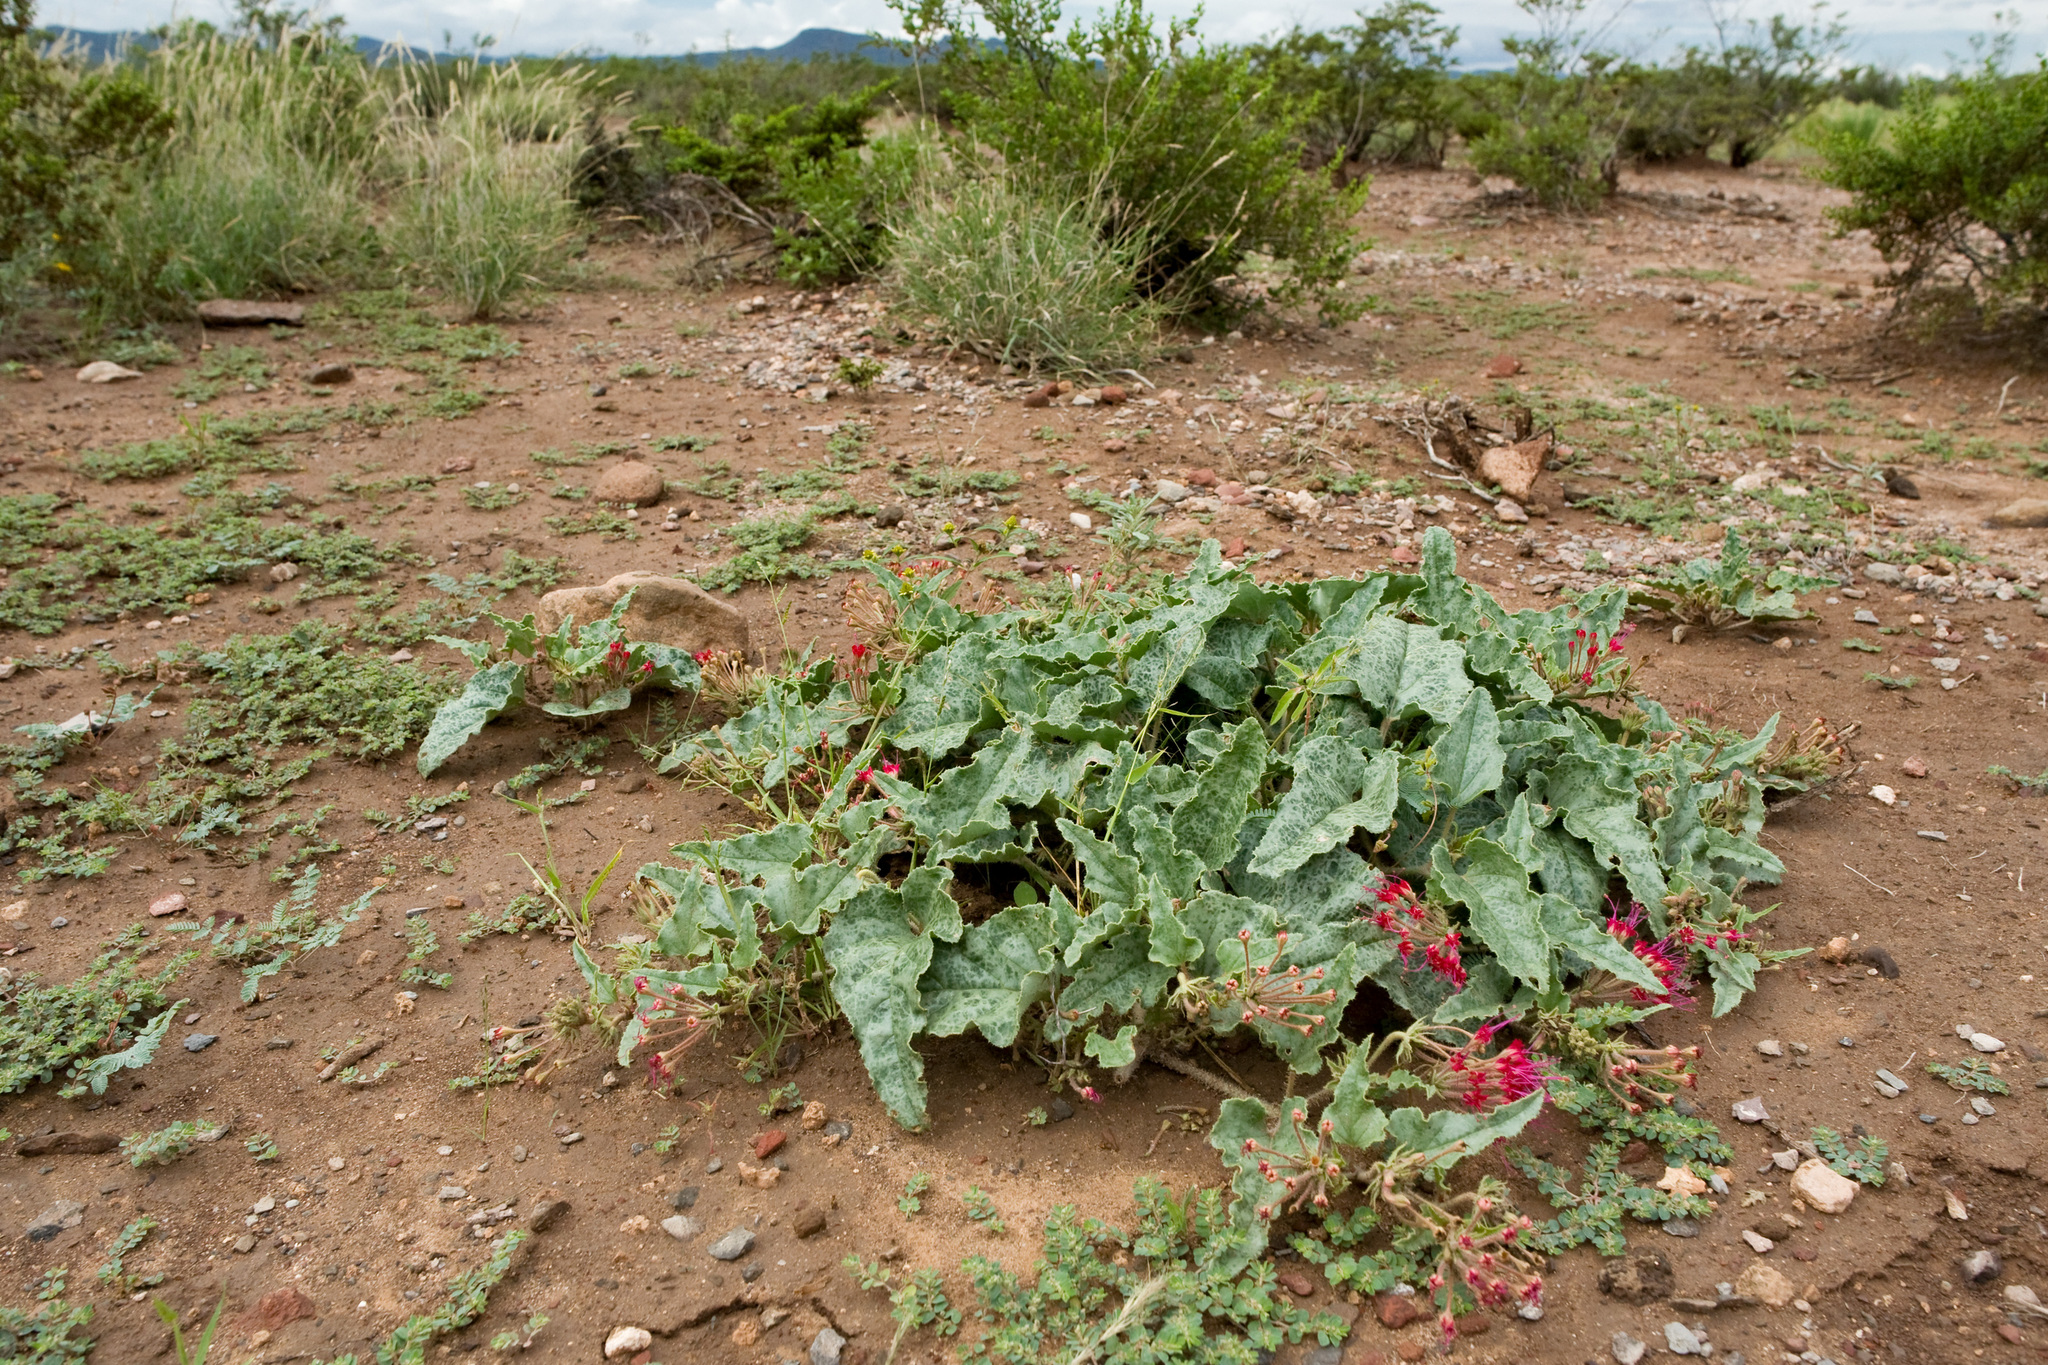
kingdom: Plantae
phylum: Tracheophyta
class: Magnoliopsida
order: Caryophyllales
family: Nyctaginaceae
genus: Nyctaginia
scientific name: Nyctaginia capitata
